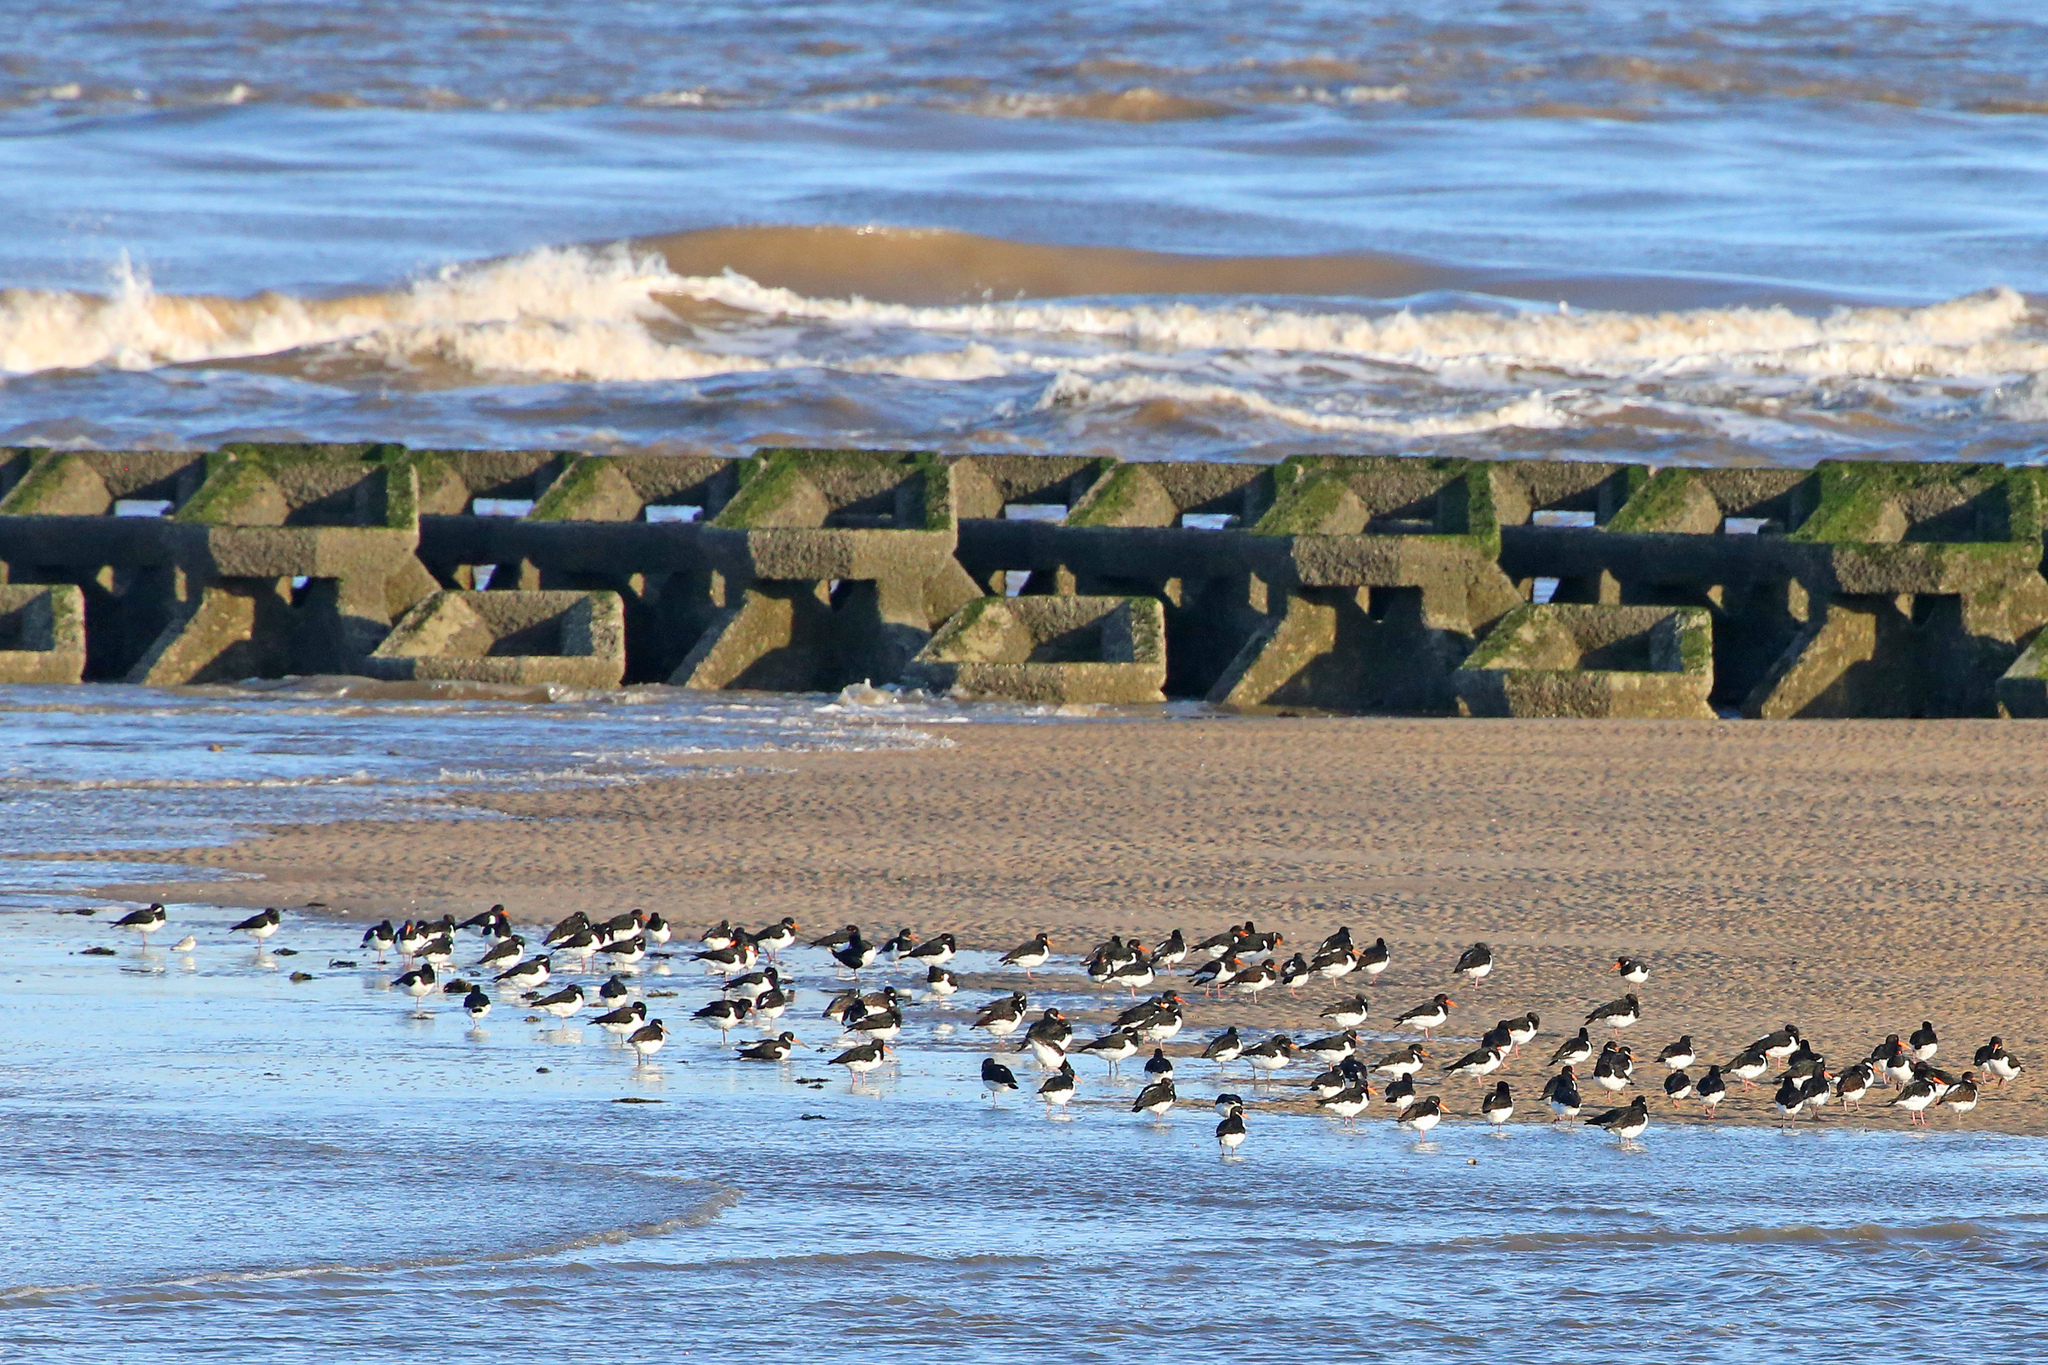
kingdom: Animalia
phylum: Chordata
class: Aves
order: Charadriiformes
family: Haematopodidae
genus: Haematopus
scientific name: Haematopus ostralegus
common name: Eurasian oystercatcher
